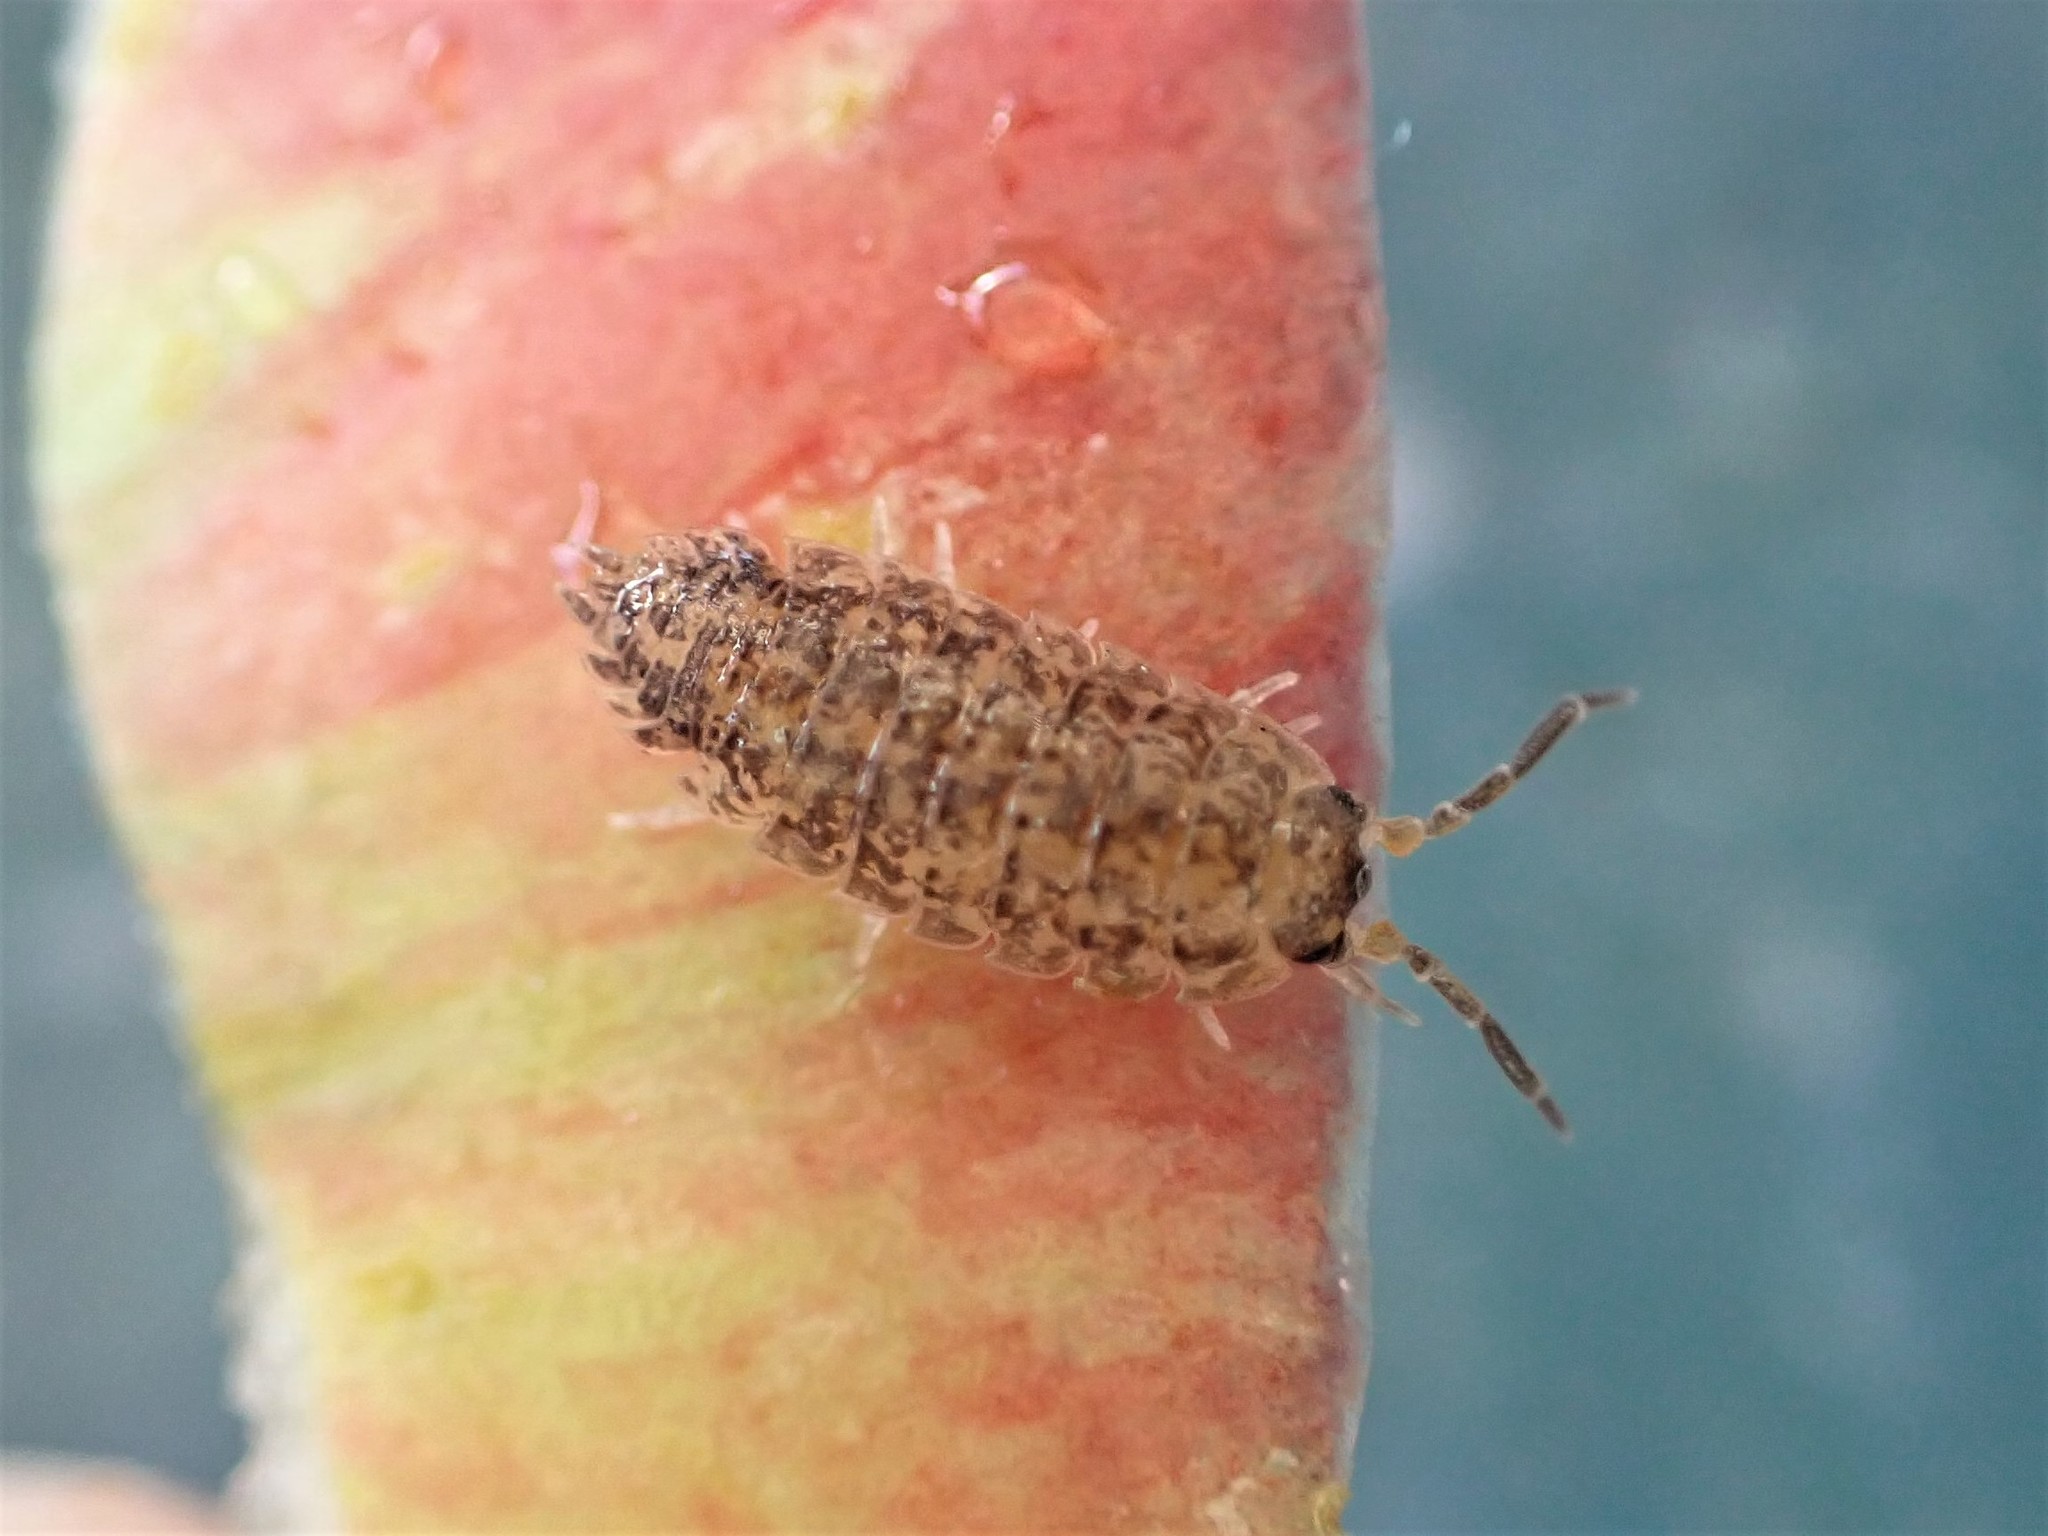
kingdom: Animalia
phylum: Arthropoda
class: Malacostraca
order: Isopoda
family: Porcellionidae
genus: Porcellio
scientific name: Porcellio scaber
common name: Common rough woodlouse
